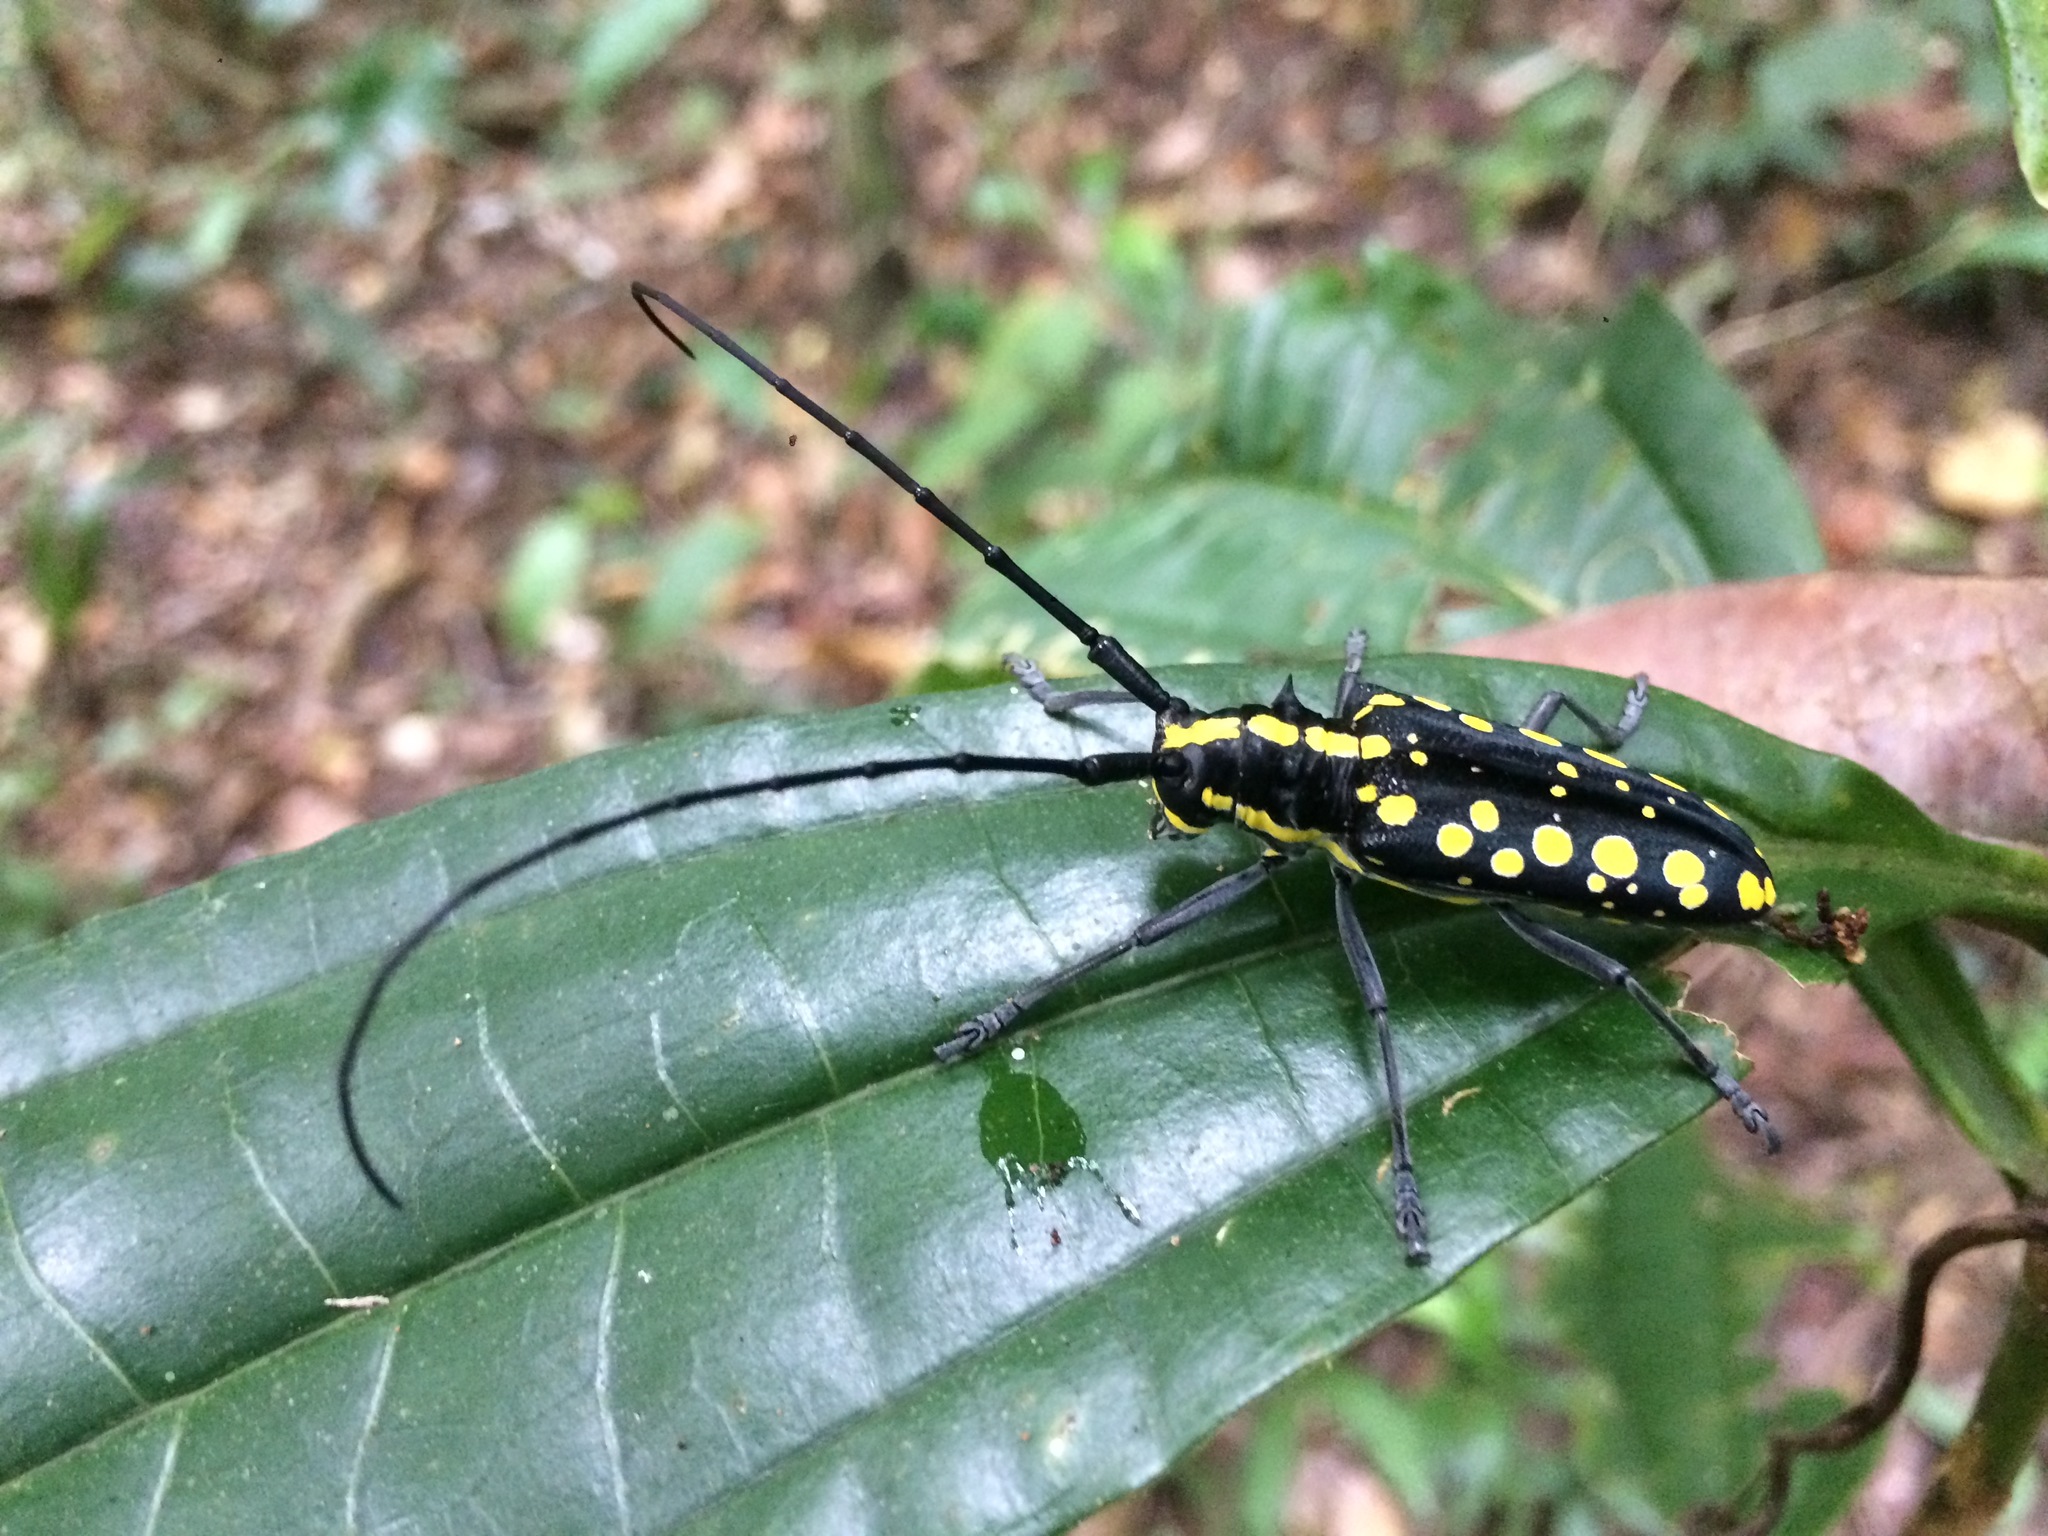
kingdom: Animalia
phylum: Arthropoda
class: Insecta
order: Coleoptera
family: Cerambycidae
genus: Taeniotes
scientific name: Taeniotes farinosus
